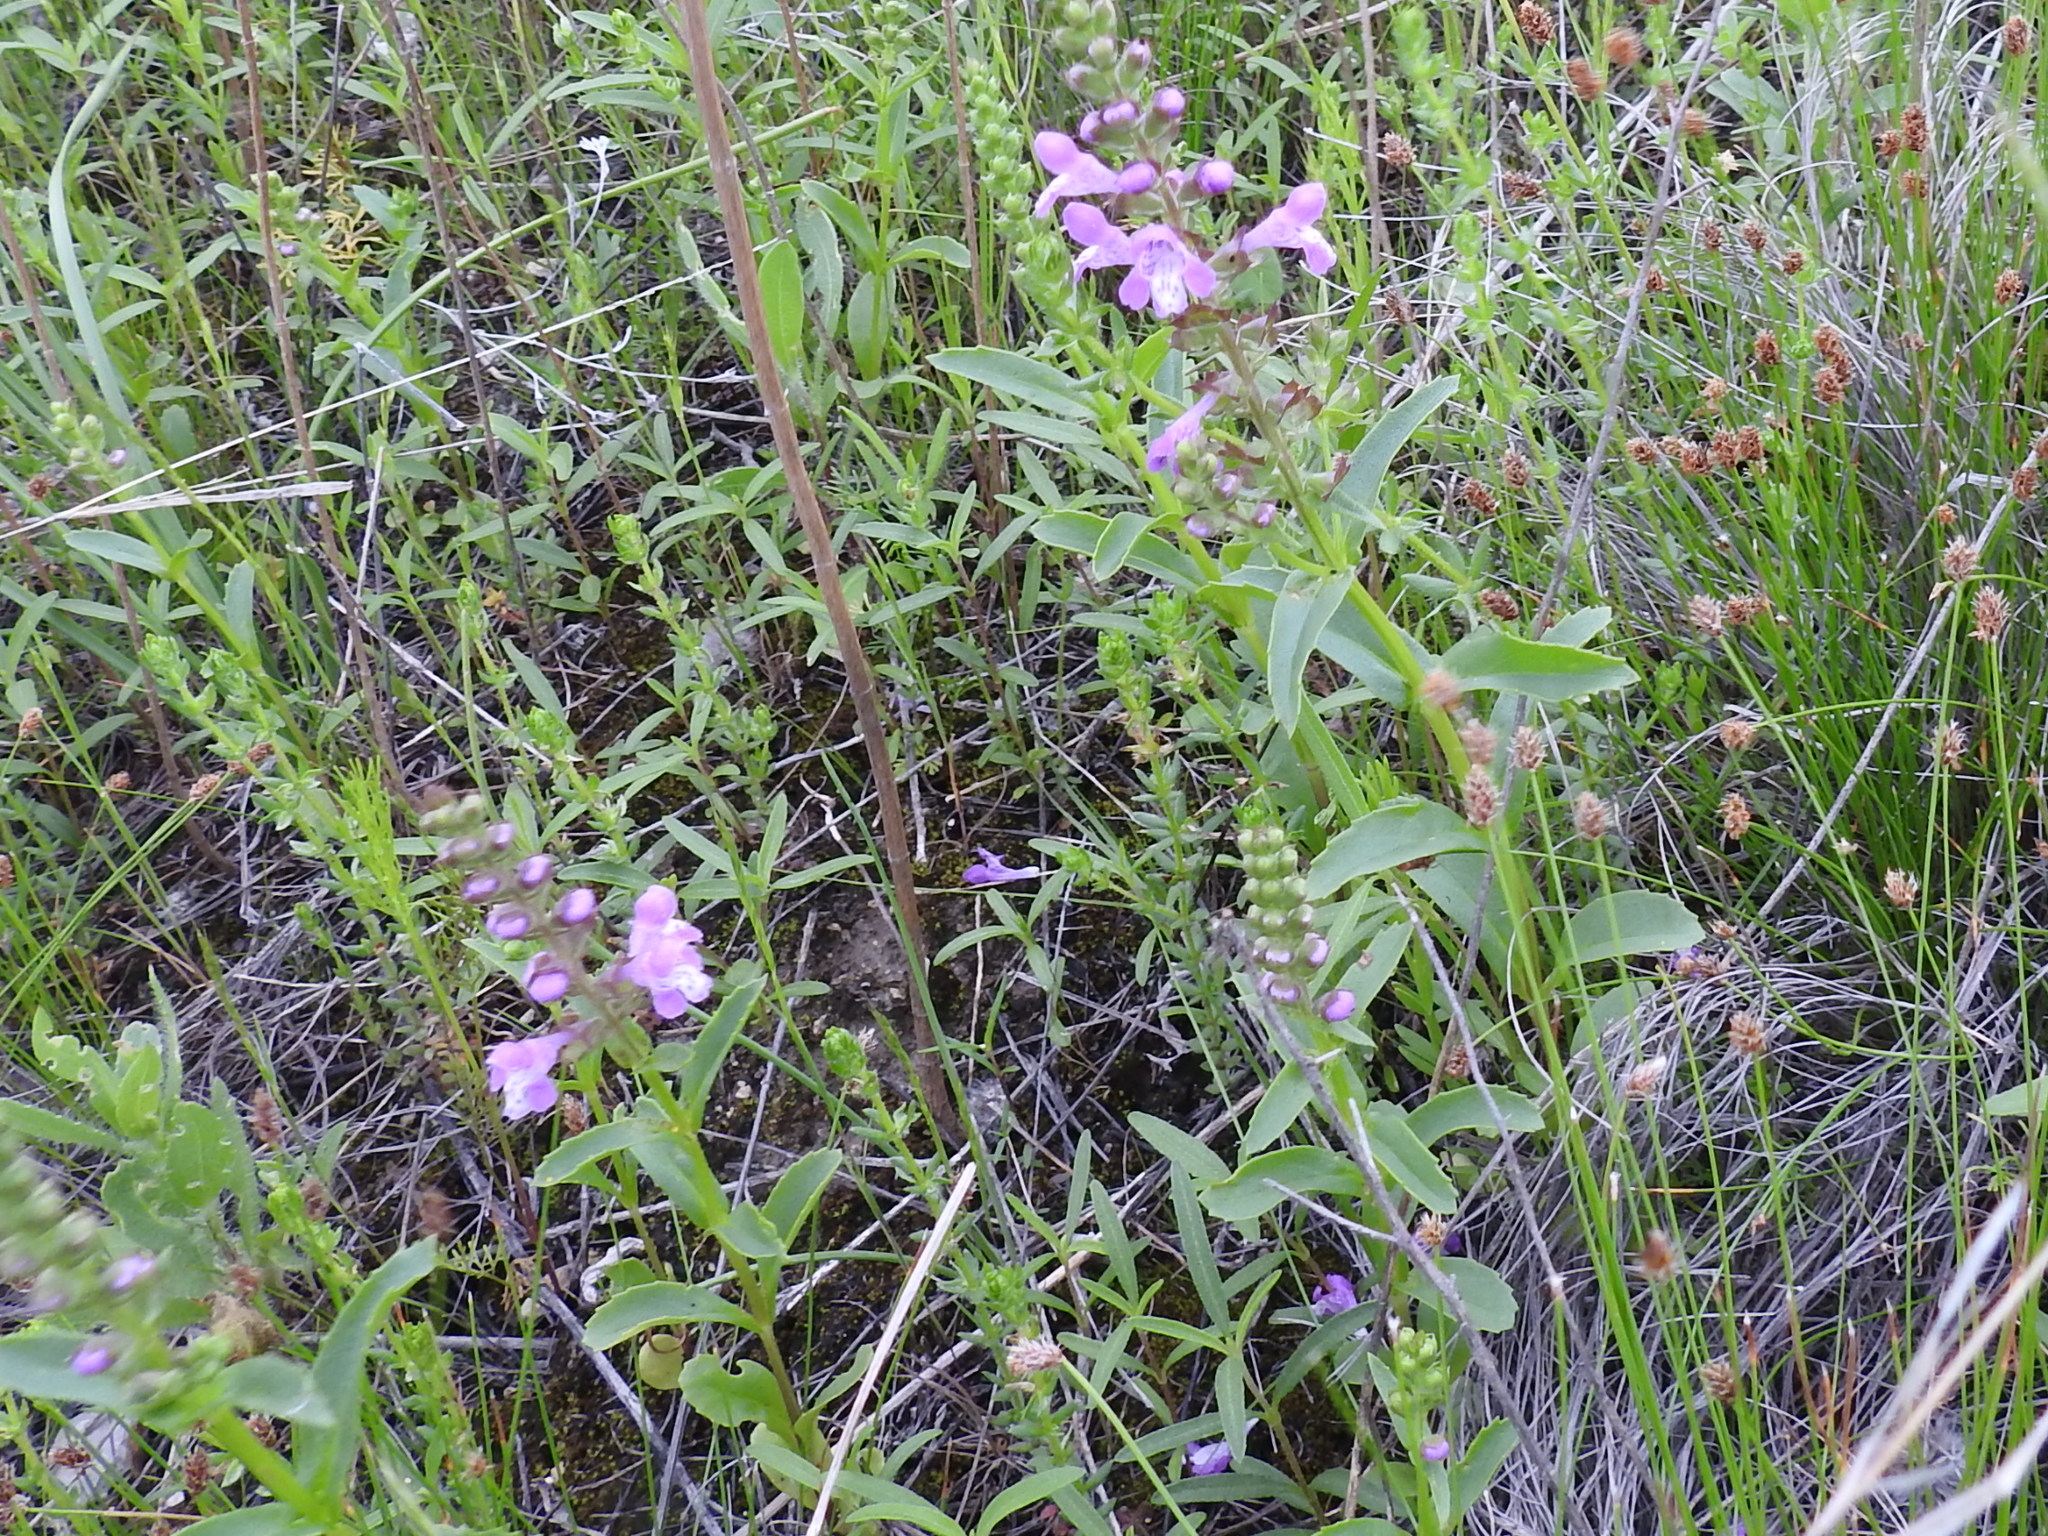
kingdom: Plantae
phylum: Tracheophyta
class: Magnoliopsida
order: Lamiales
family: Lamiaceae
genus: Warnockia
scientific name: Warnockia scutellarioides
